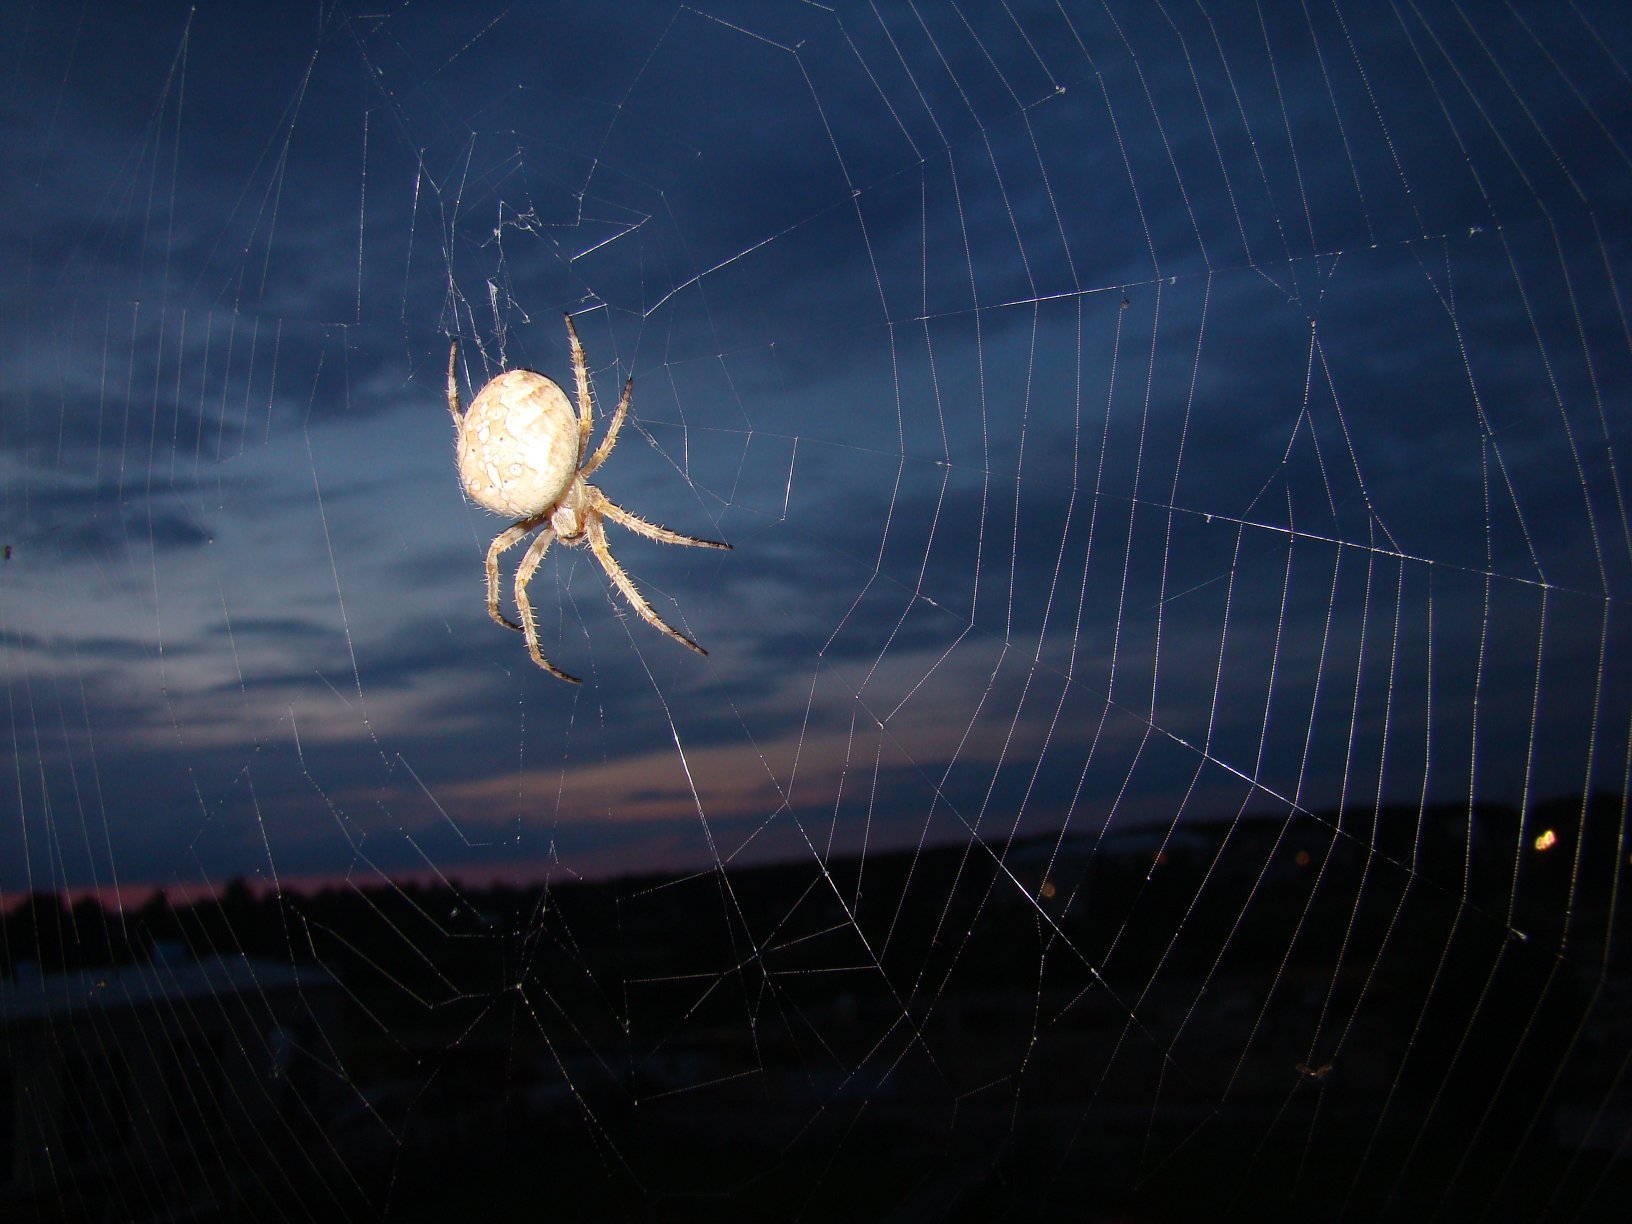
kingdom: Animalia
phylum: Arthropoda
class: Arachnida
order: Araneae
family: Araneidae
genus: Araneus
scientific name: Araneus diadematus
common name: Cross orbweaver
